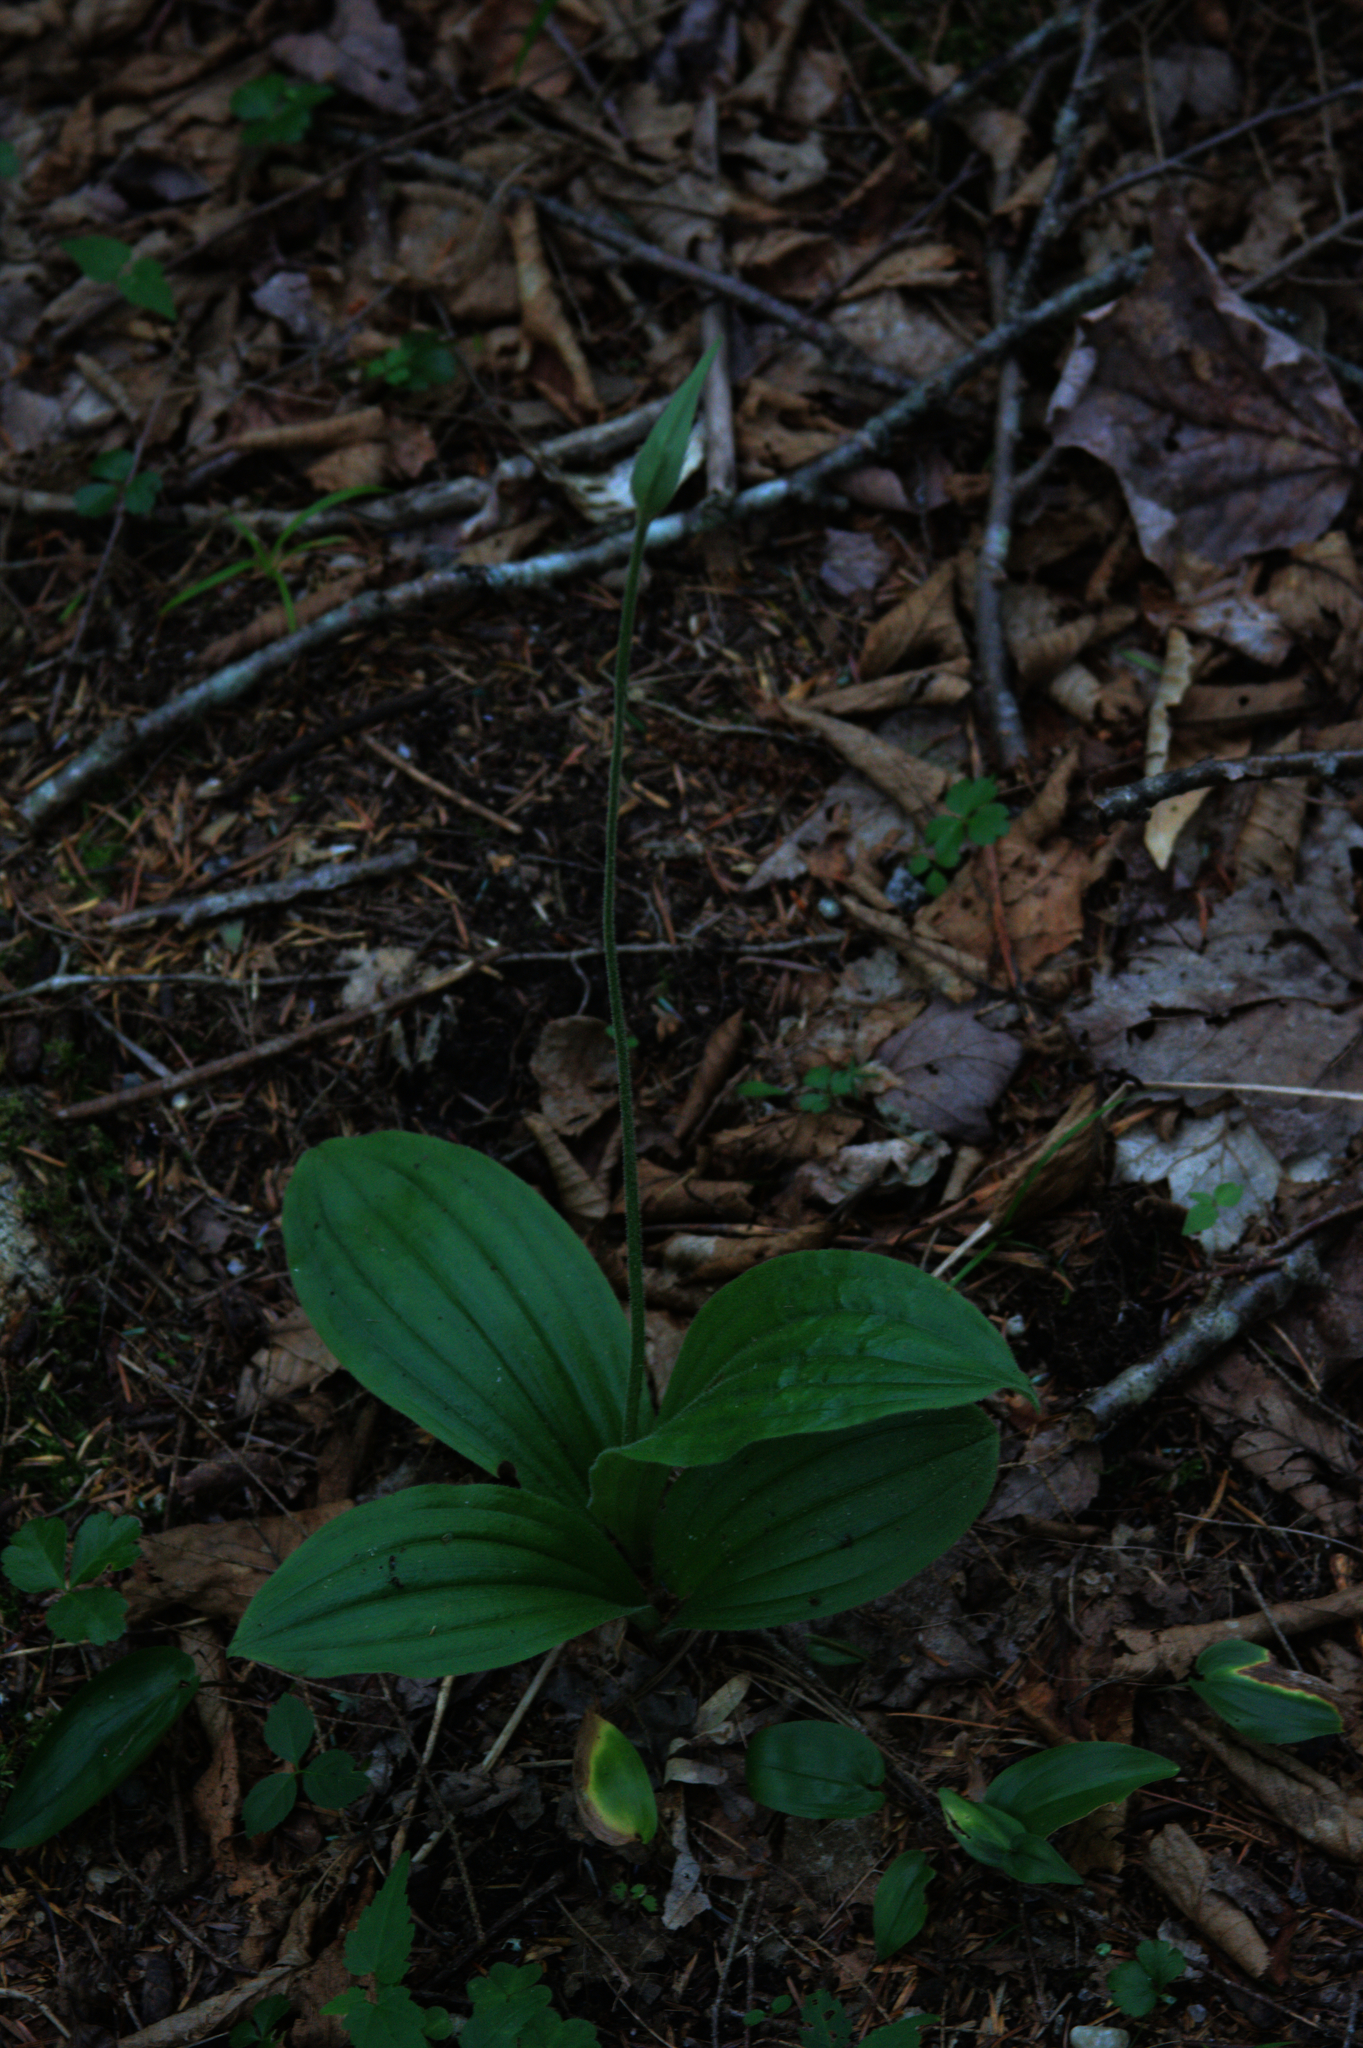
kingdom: Plantae
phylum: Tracheophyta
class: Liliopsida
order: Asparagales
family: Orchidaceae
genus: Cypripedium
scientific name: Cypripedium acaule
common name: Pink lady's-slipper
